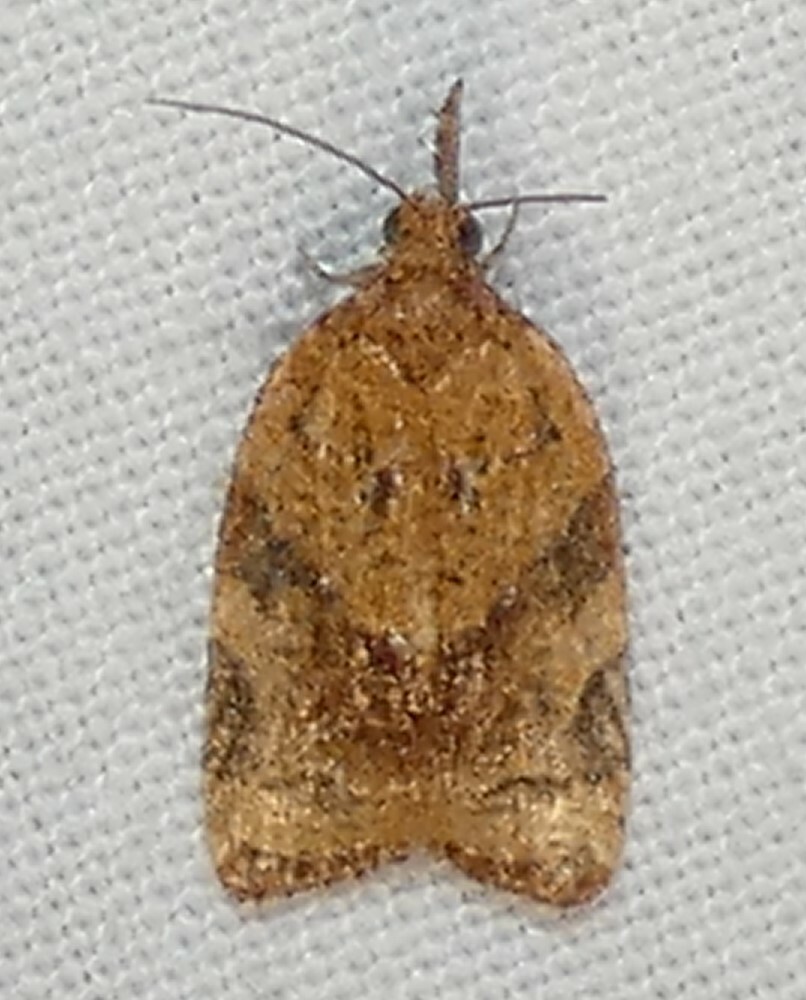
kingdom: Animalia
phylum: Arthropoda
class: Insecta
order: Lepidoptera
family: Tortricidae
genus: Platynota
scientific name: Platynota flavedana
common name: Black-shaded platynota moth
